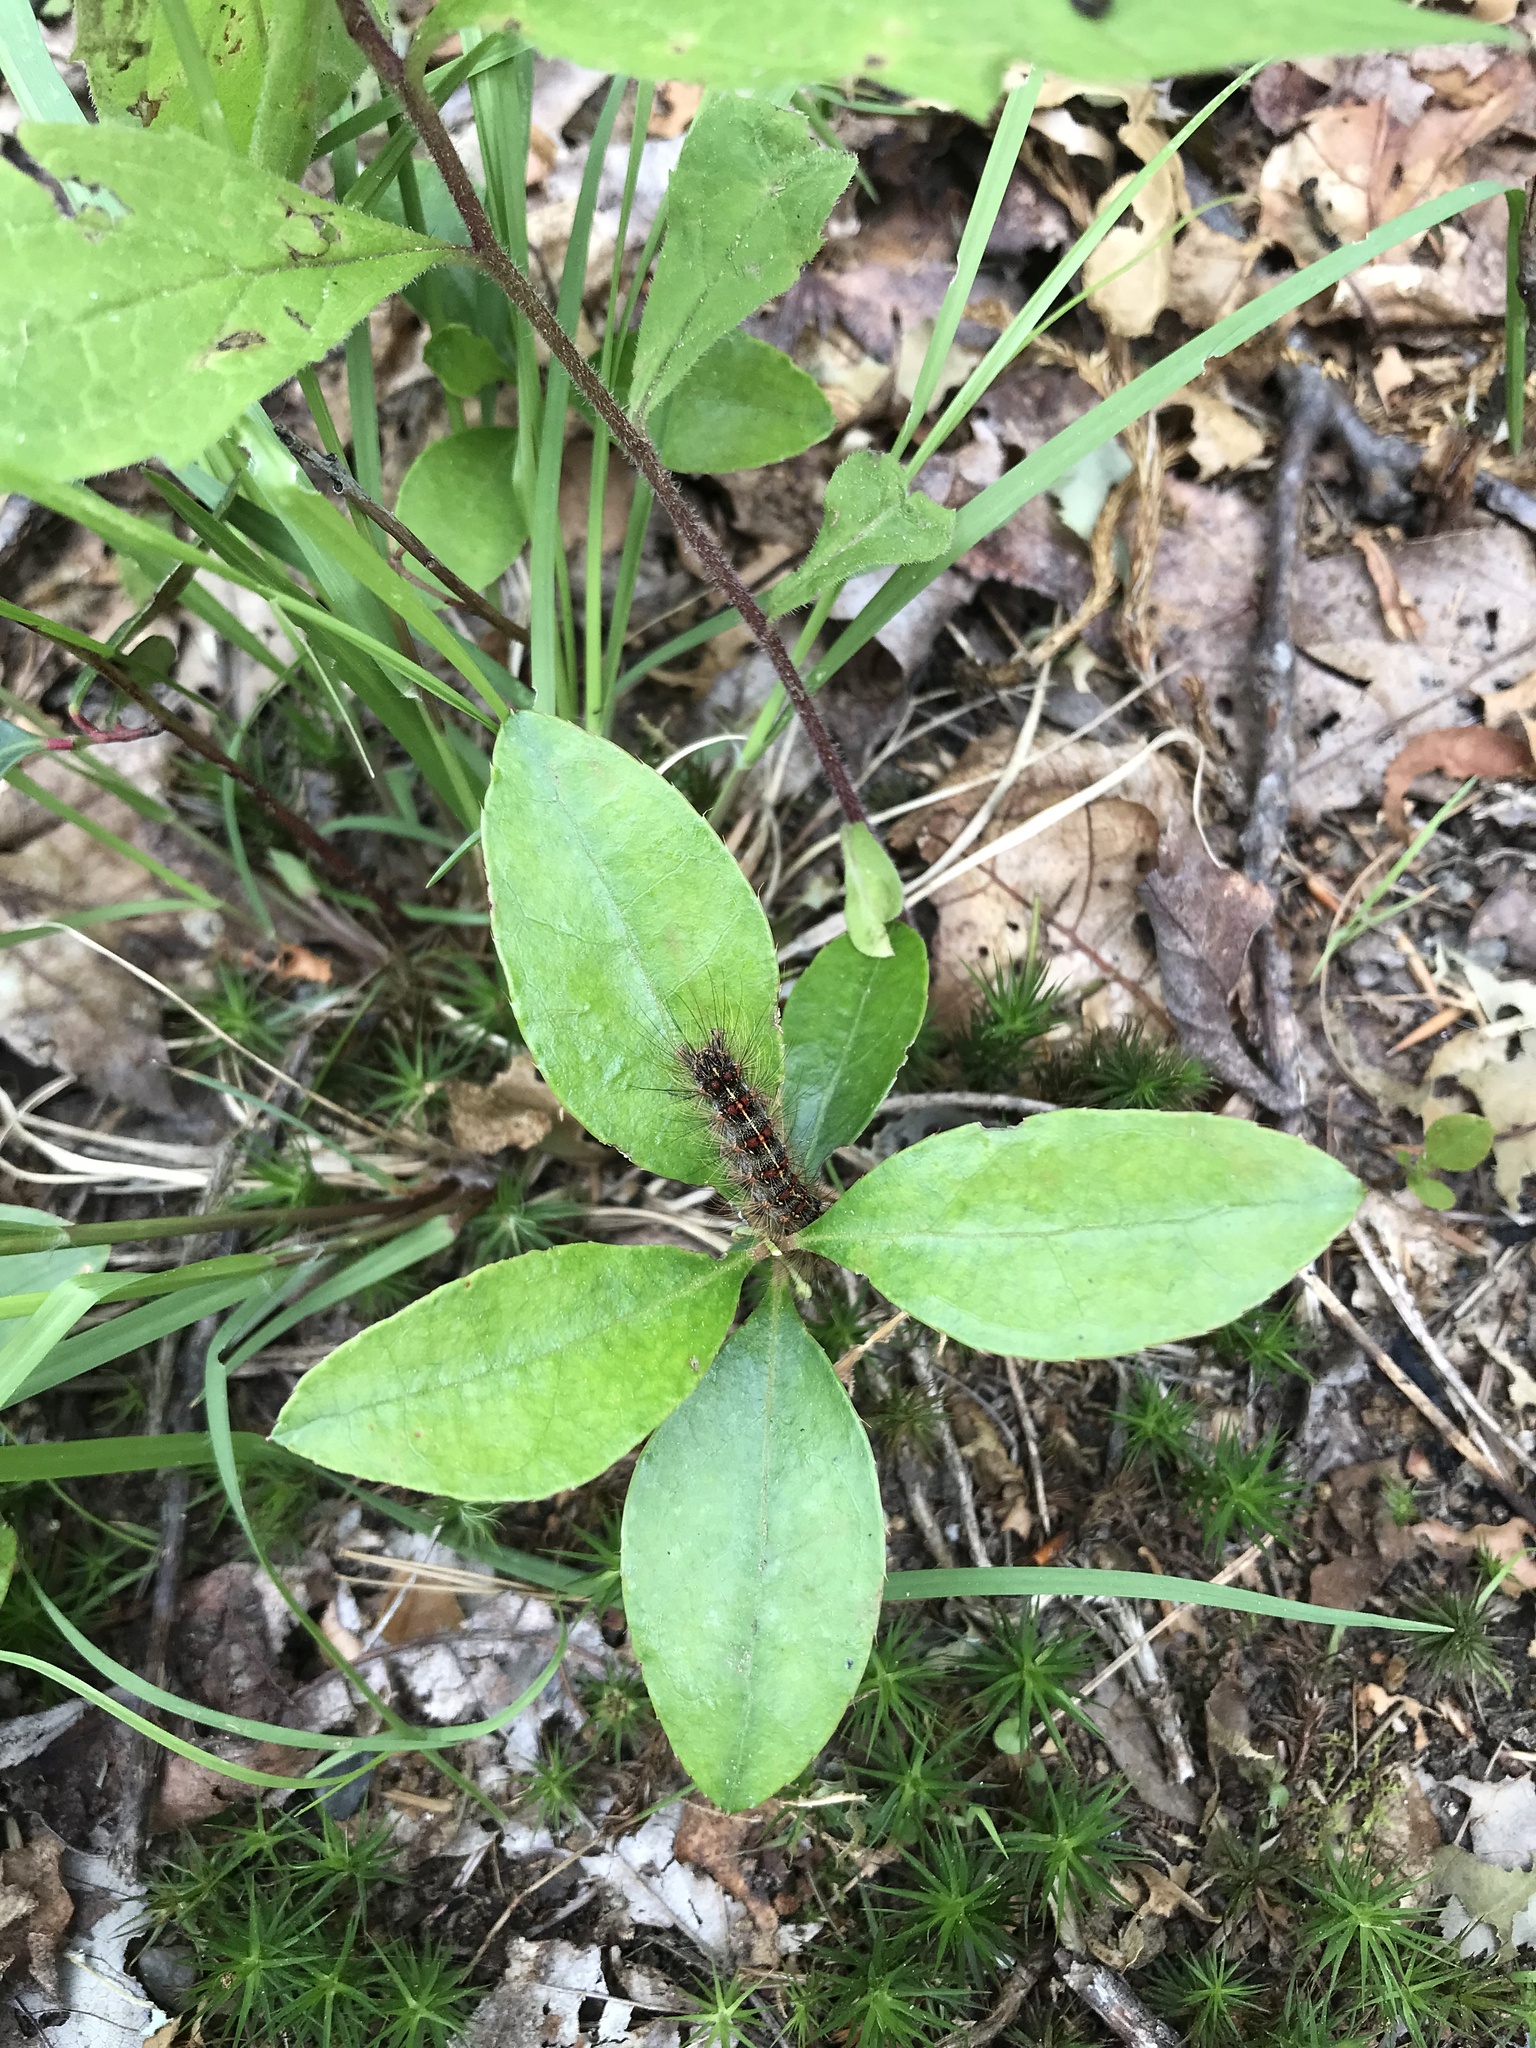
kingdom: Animalia
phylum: Arthropoda
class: Insecta
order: Lepidoptera
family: Erebidae
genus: Lymantria
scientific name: Lymantria dispar
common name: Gypsy moth
